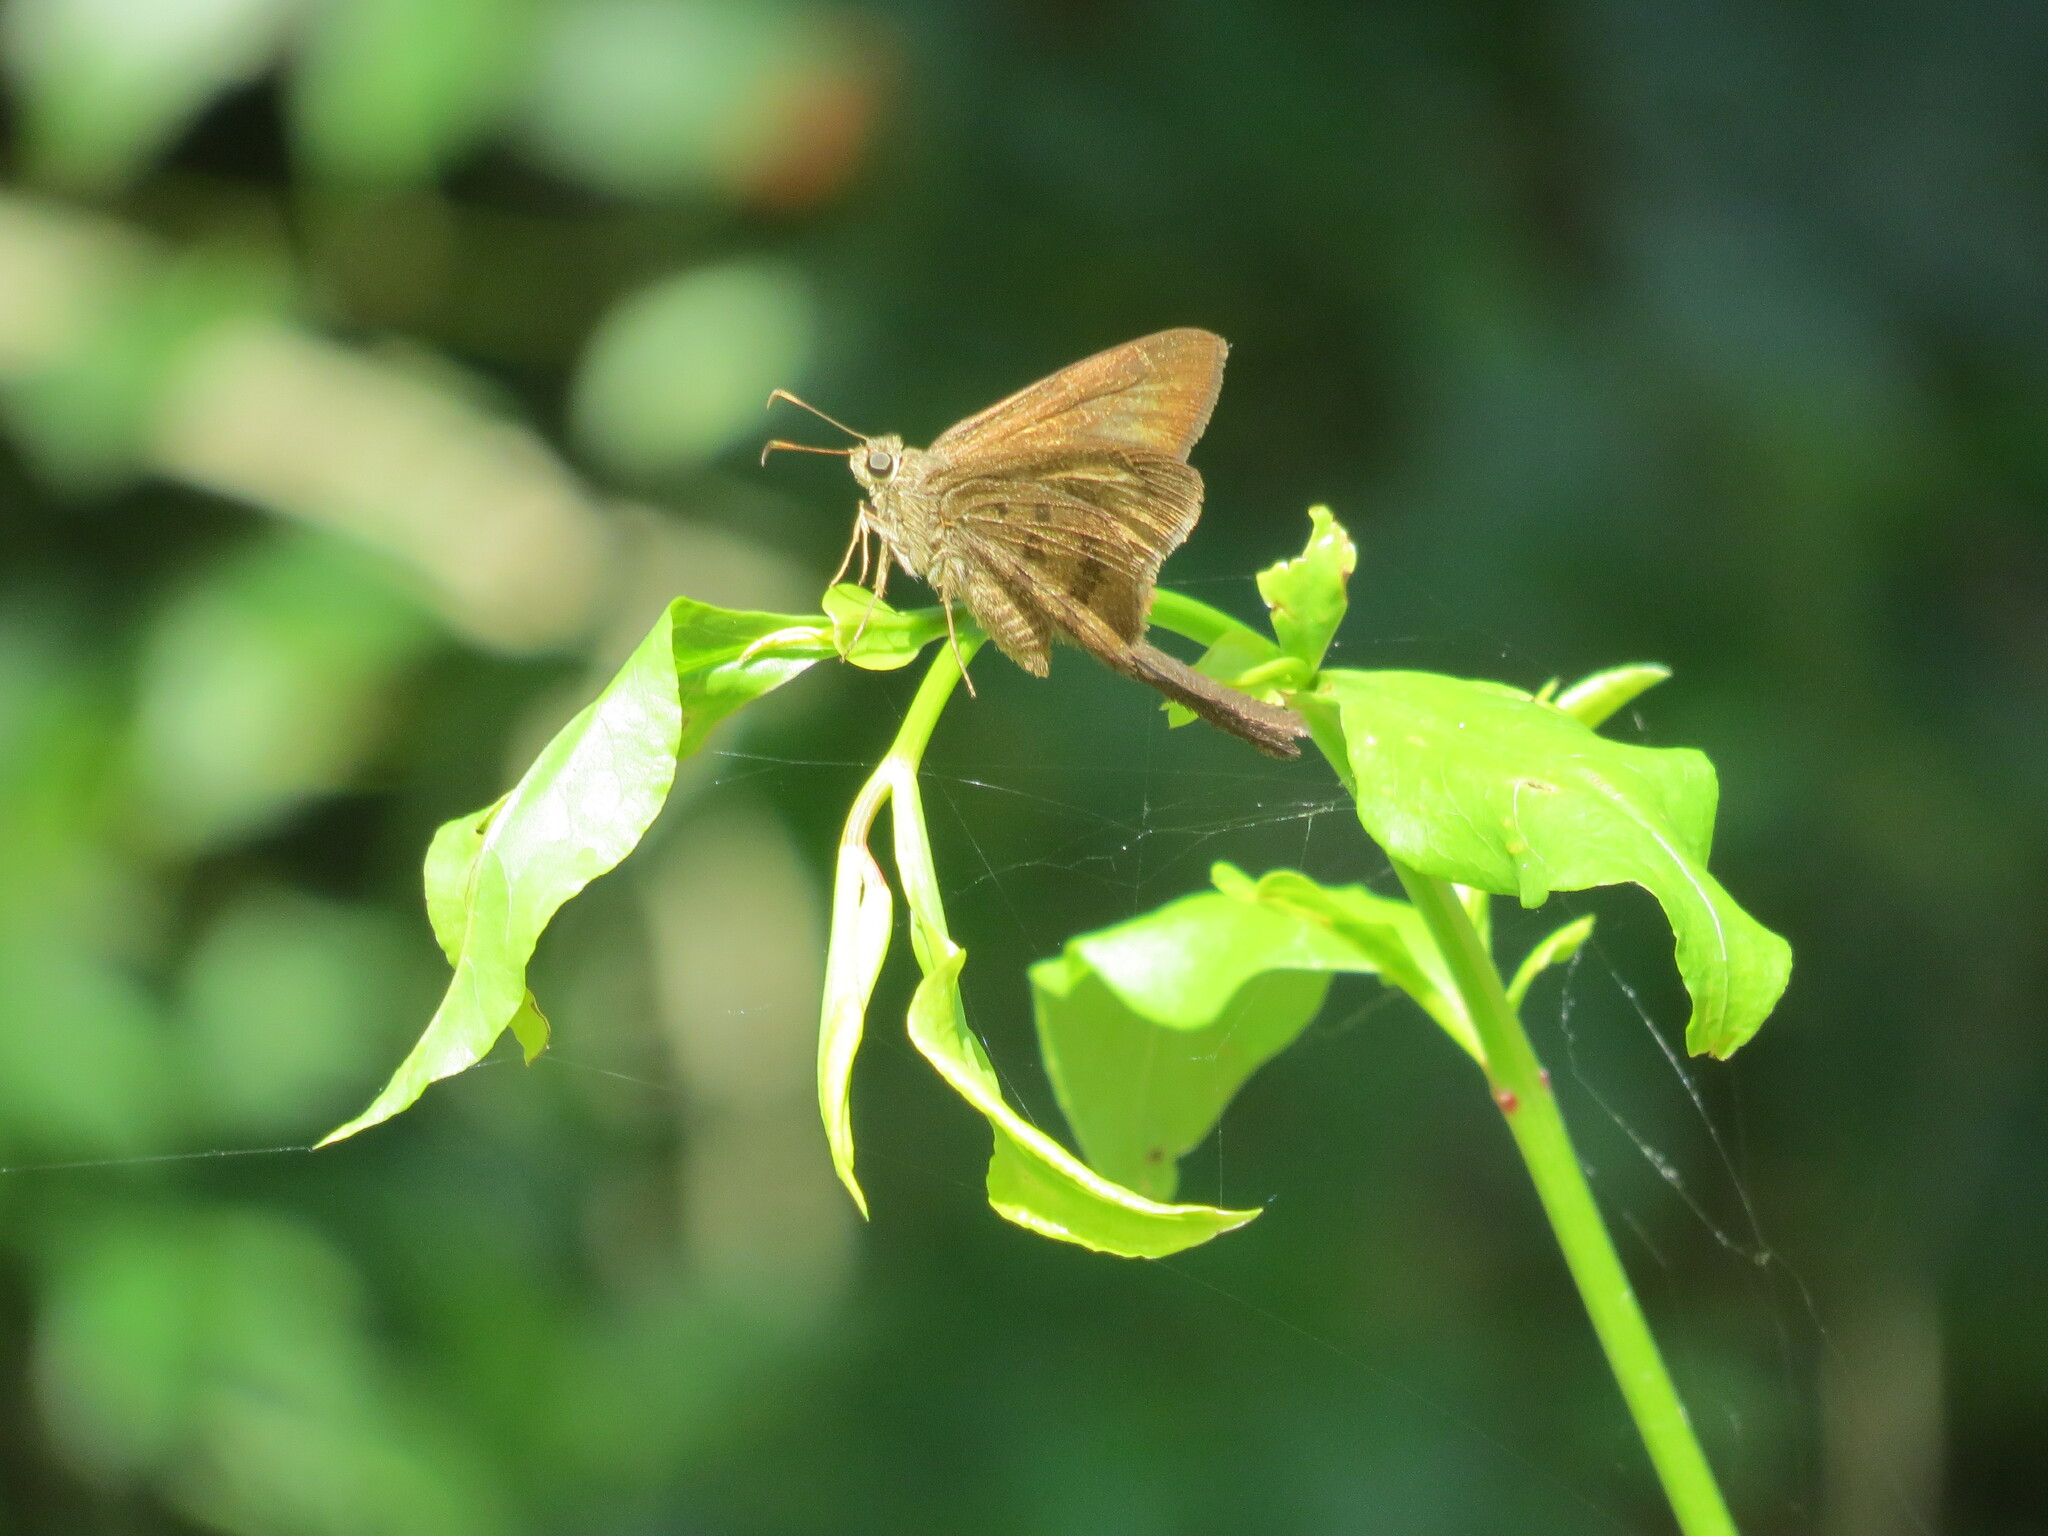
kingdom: Animalia
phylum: Arthropoda
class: Insecta
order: Lepidoptera
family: Hesperiidae
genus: Urbanus
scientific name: Urbanus procne
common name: Brown longtail
